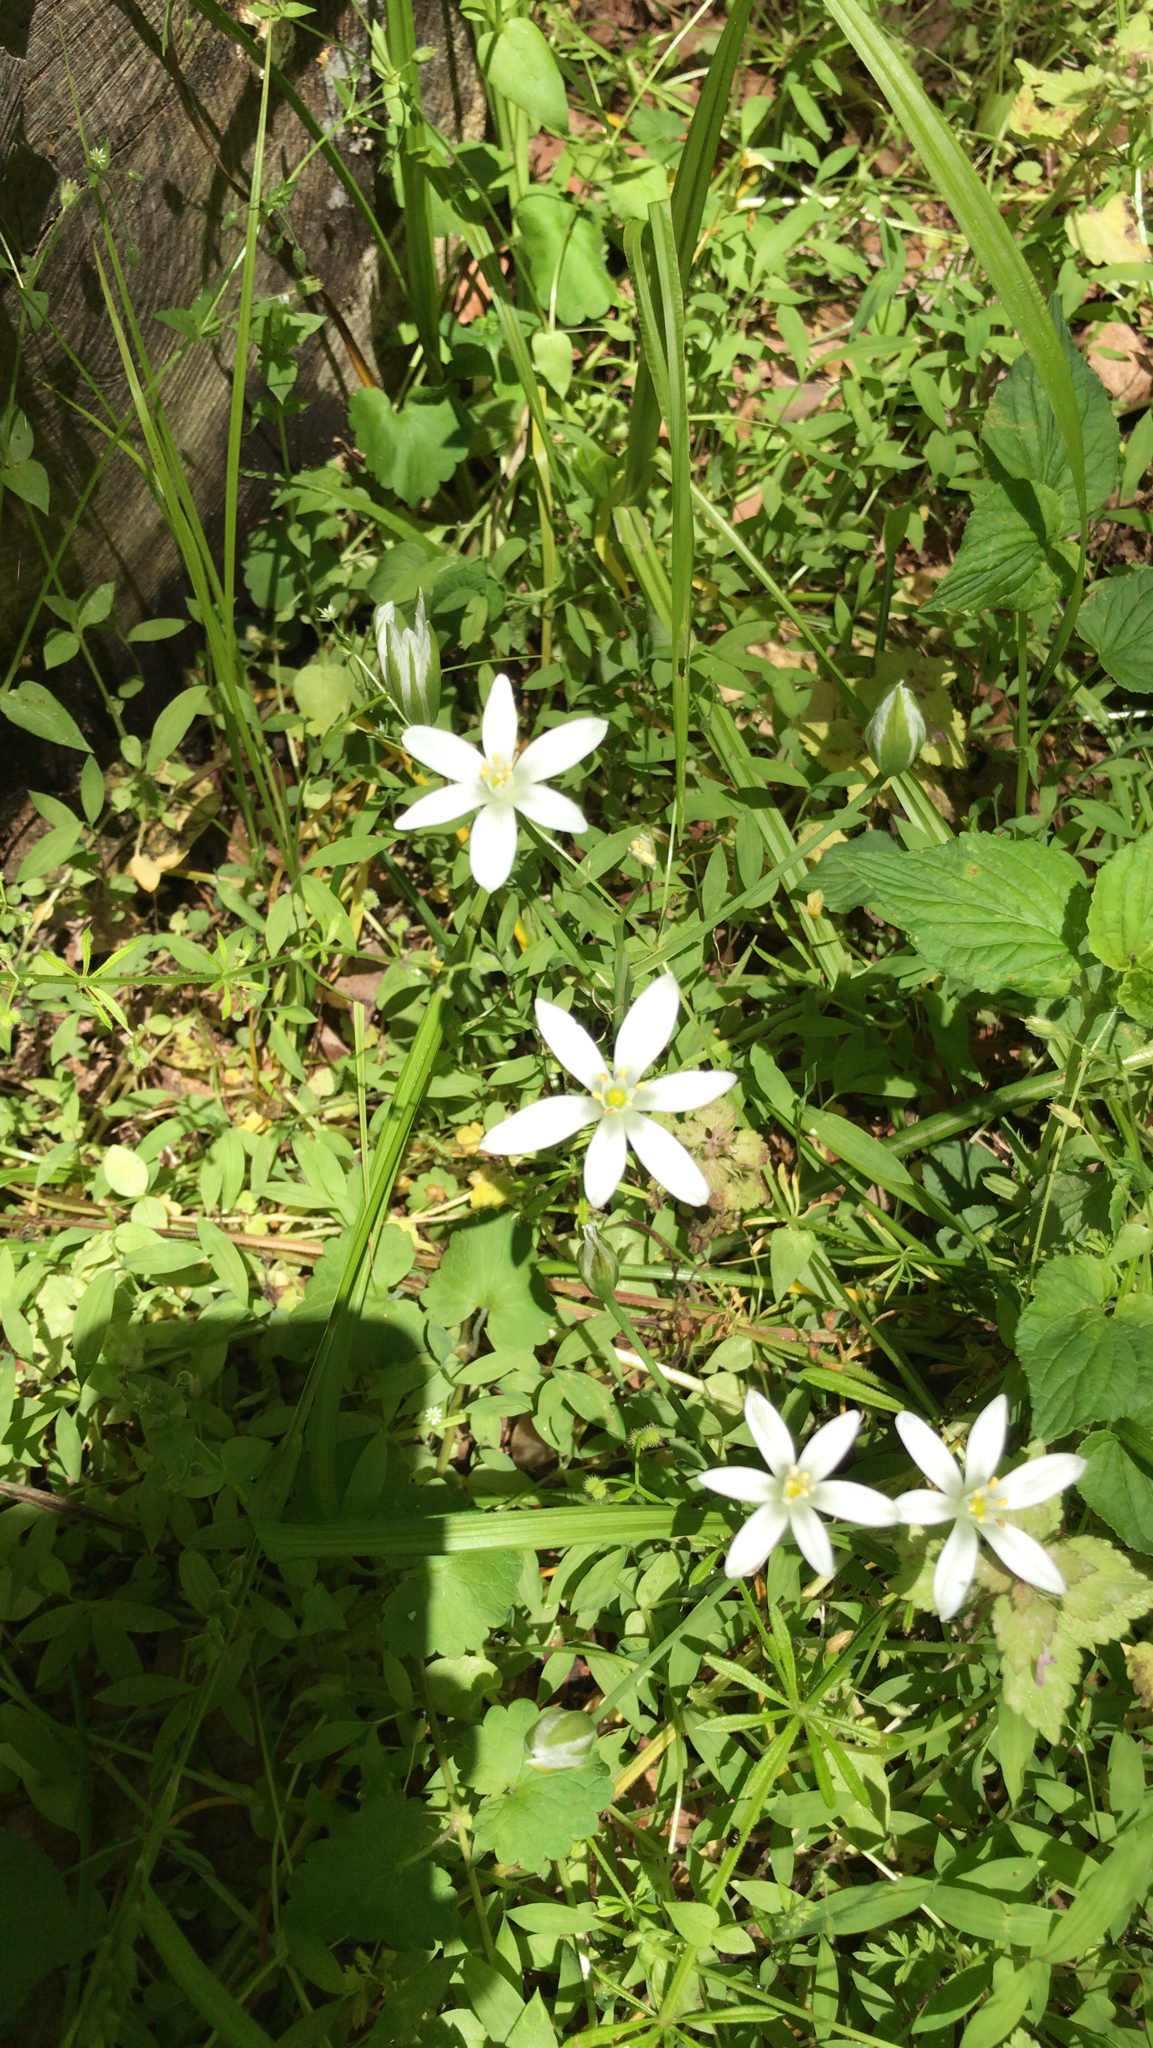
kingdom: Plantae
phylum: Tracheophyta
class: Liliopsida
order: Asparagales
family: Asparagaceae
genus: Ornithogalum
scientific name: Ornithogalum umbellatum
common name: Garden star-of-bethlehem
